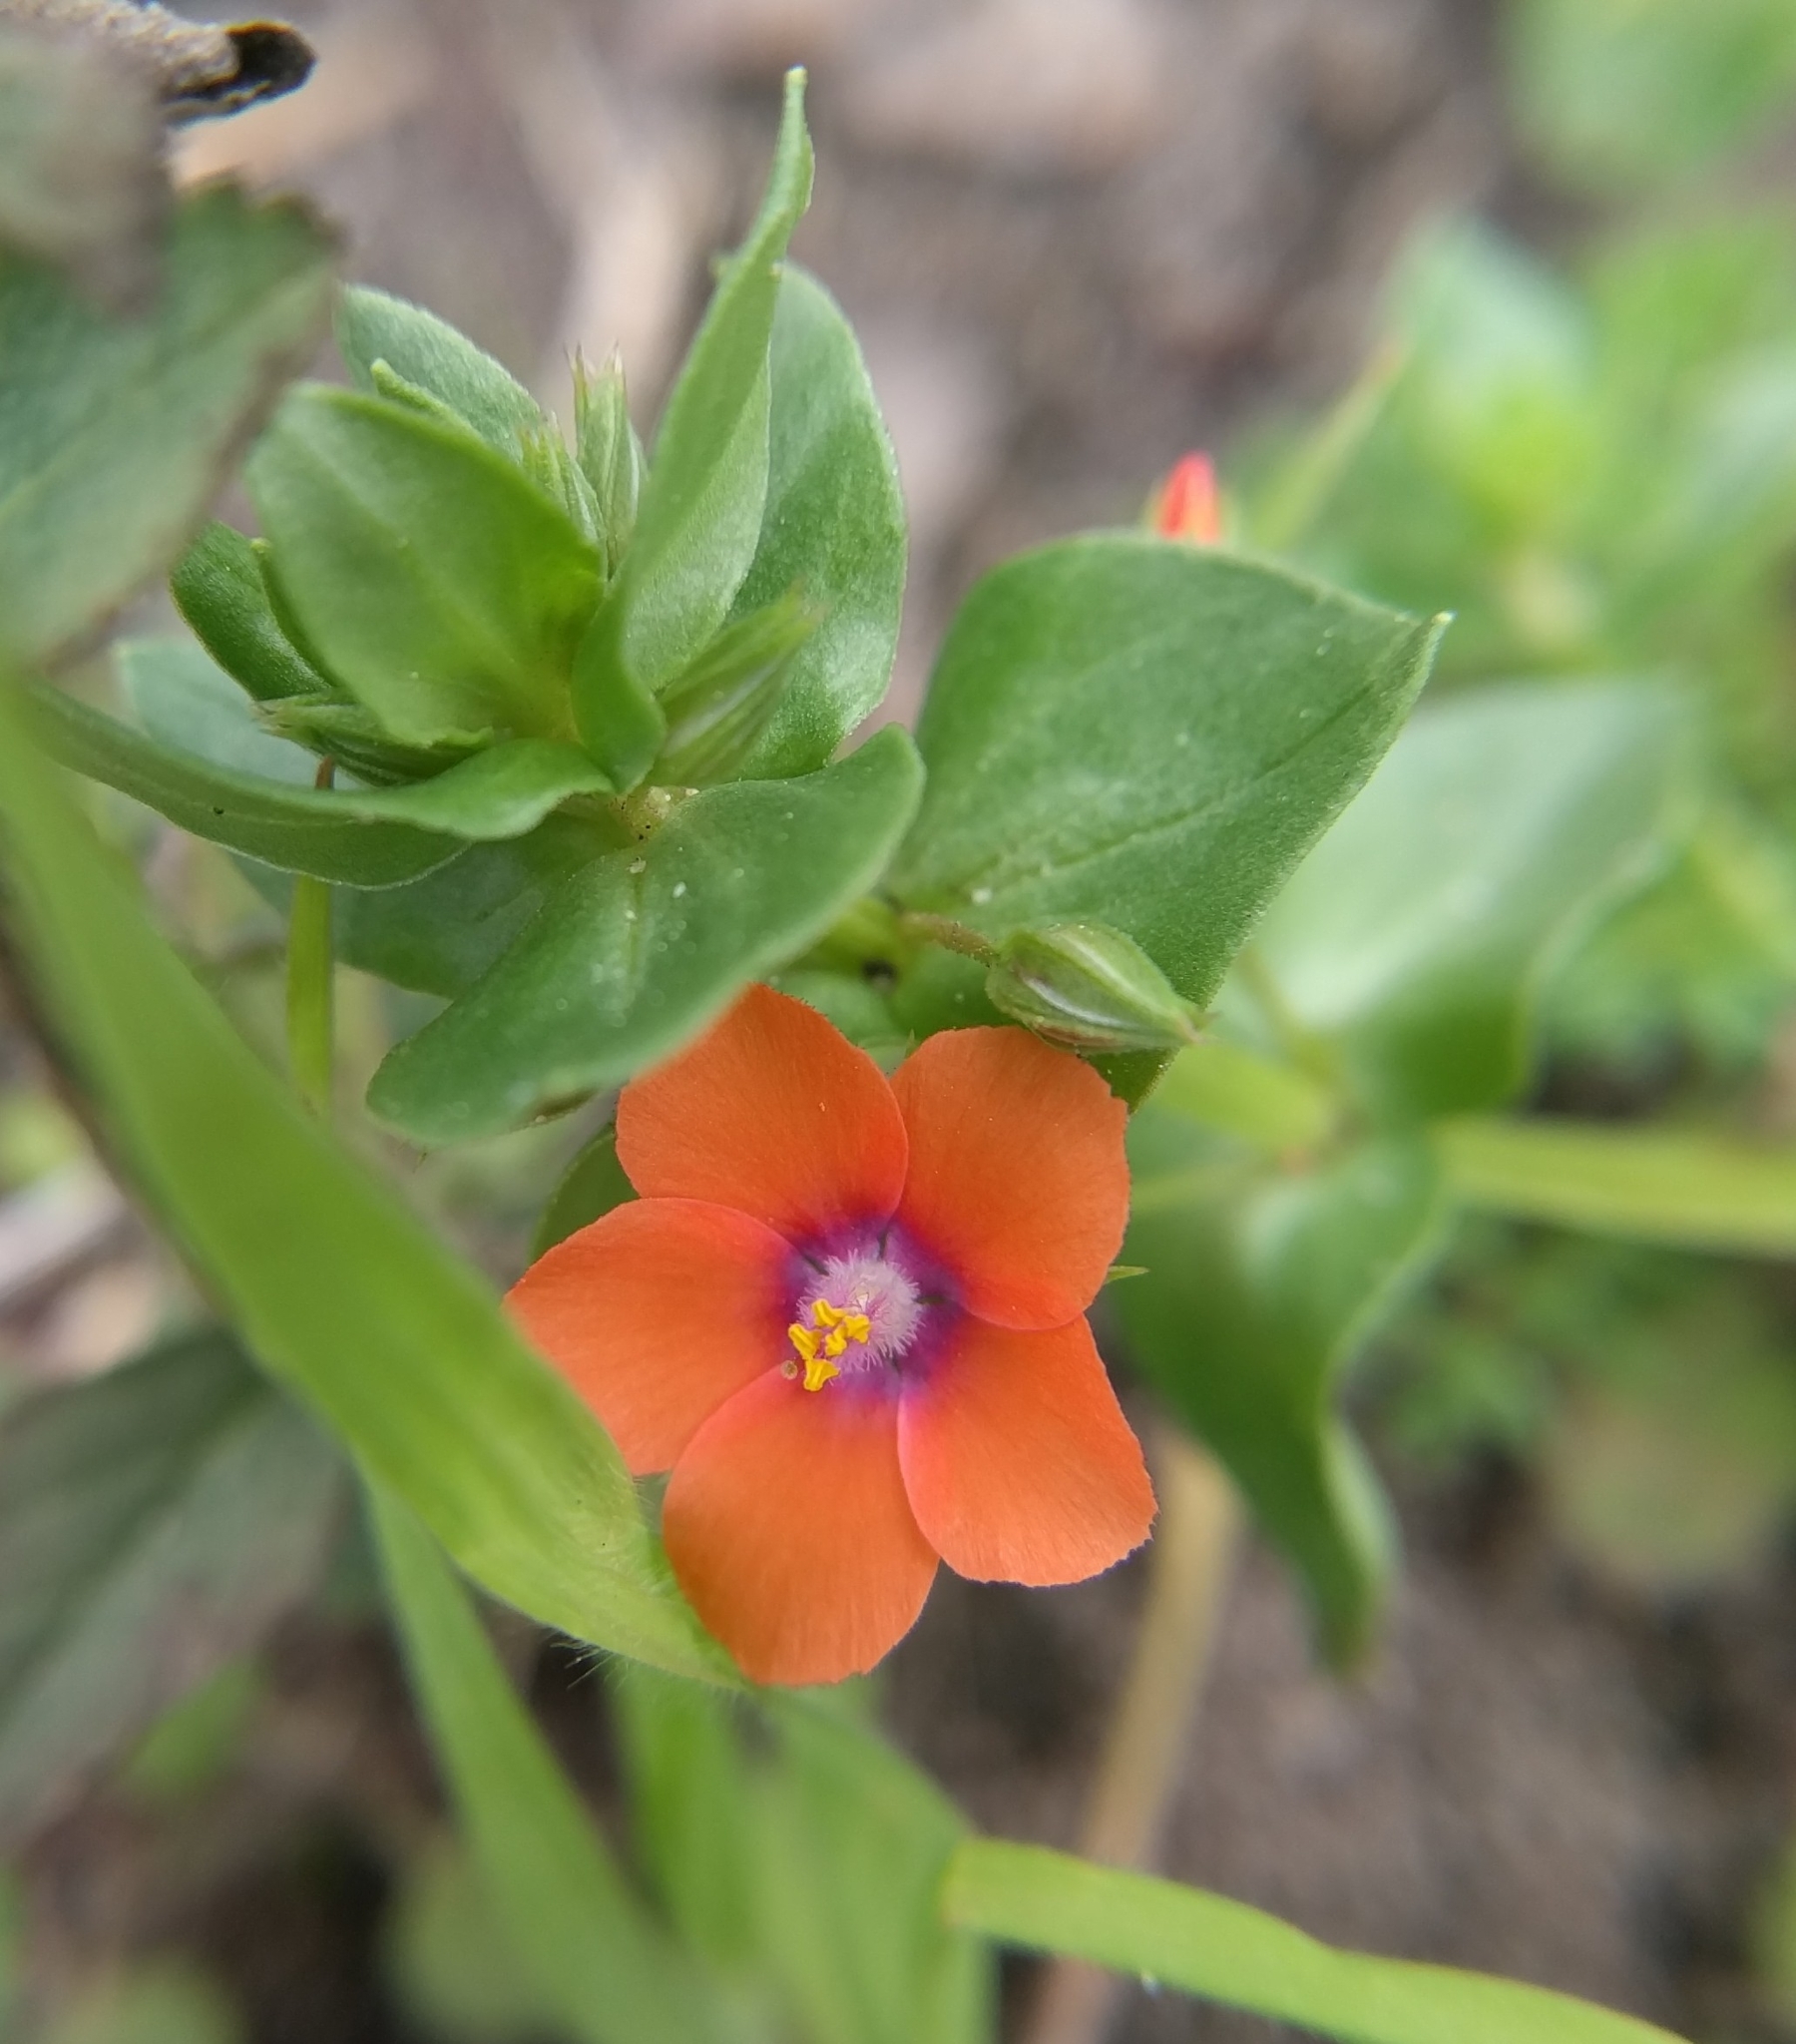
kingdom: Plantae
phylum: Tracheophyta
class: Magnoliopsida
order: Ericales
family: Primulaceae
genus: Lysimachia
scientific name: Lysimachia arvensis
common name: Scarlet pimpernel
